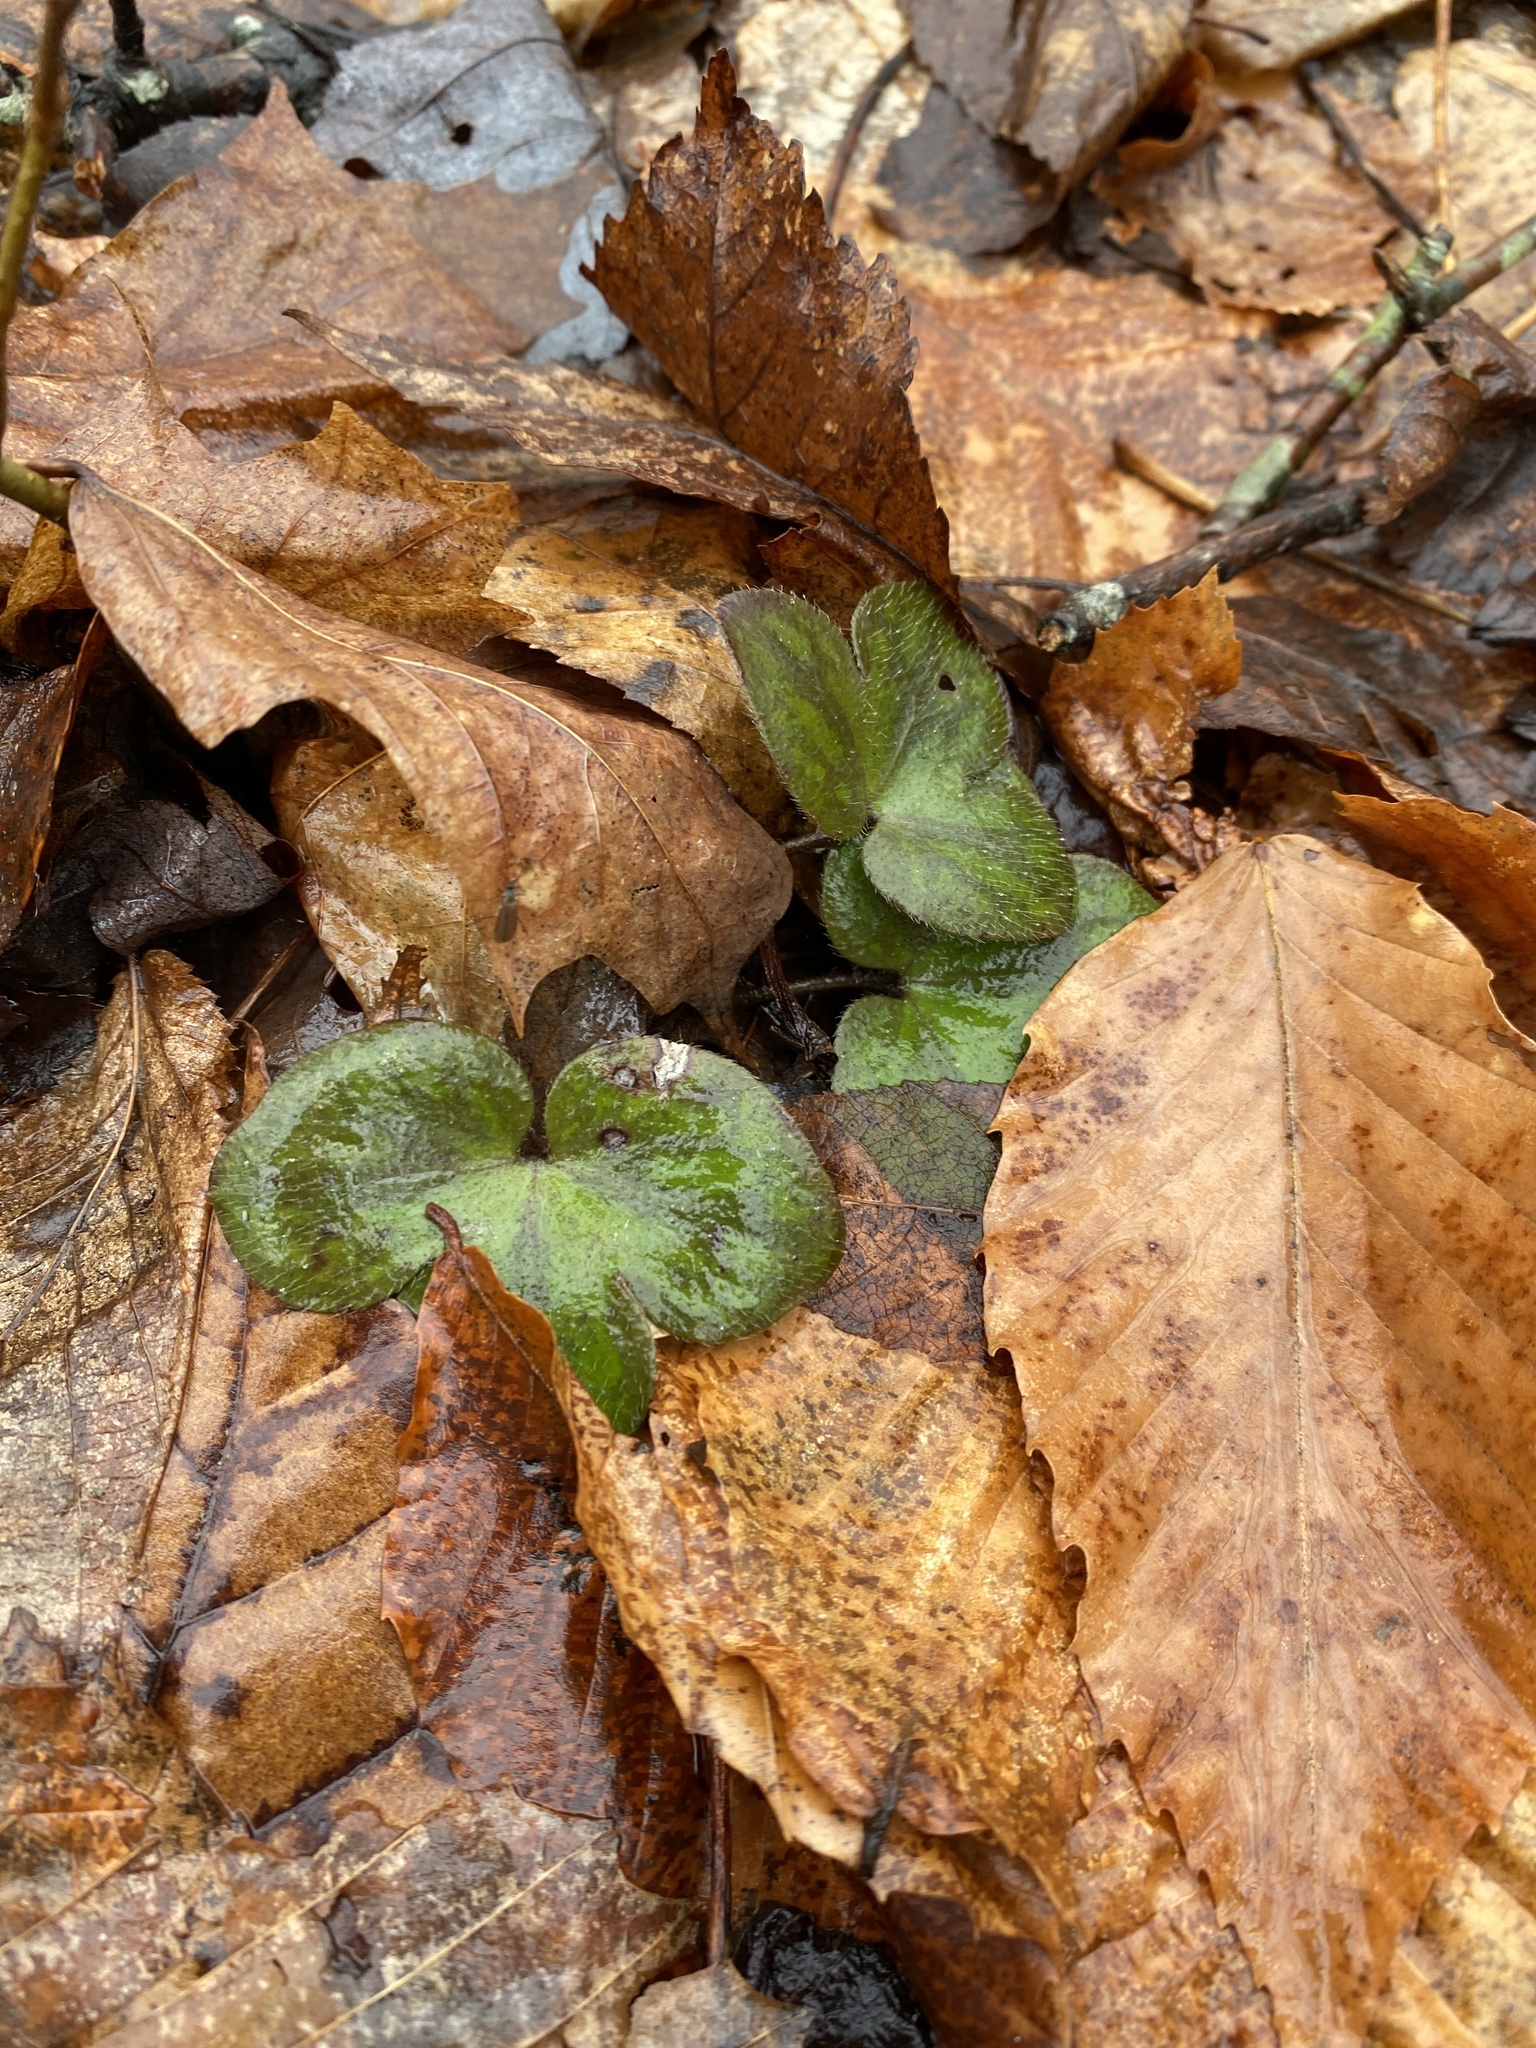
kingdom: Plantae
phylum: Tracheophyta
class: Magnoliopsida
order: Ranunculales
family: Ranunculaceae
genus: Hepatica
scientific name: Hepatica americana
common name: American hepatica
